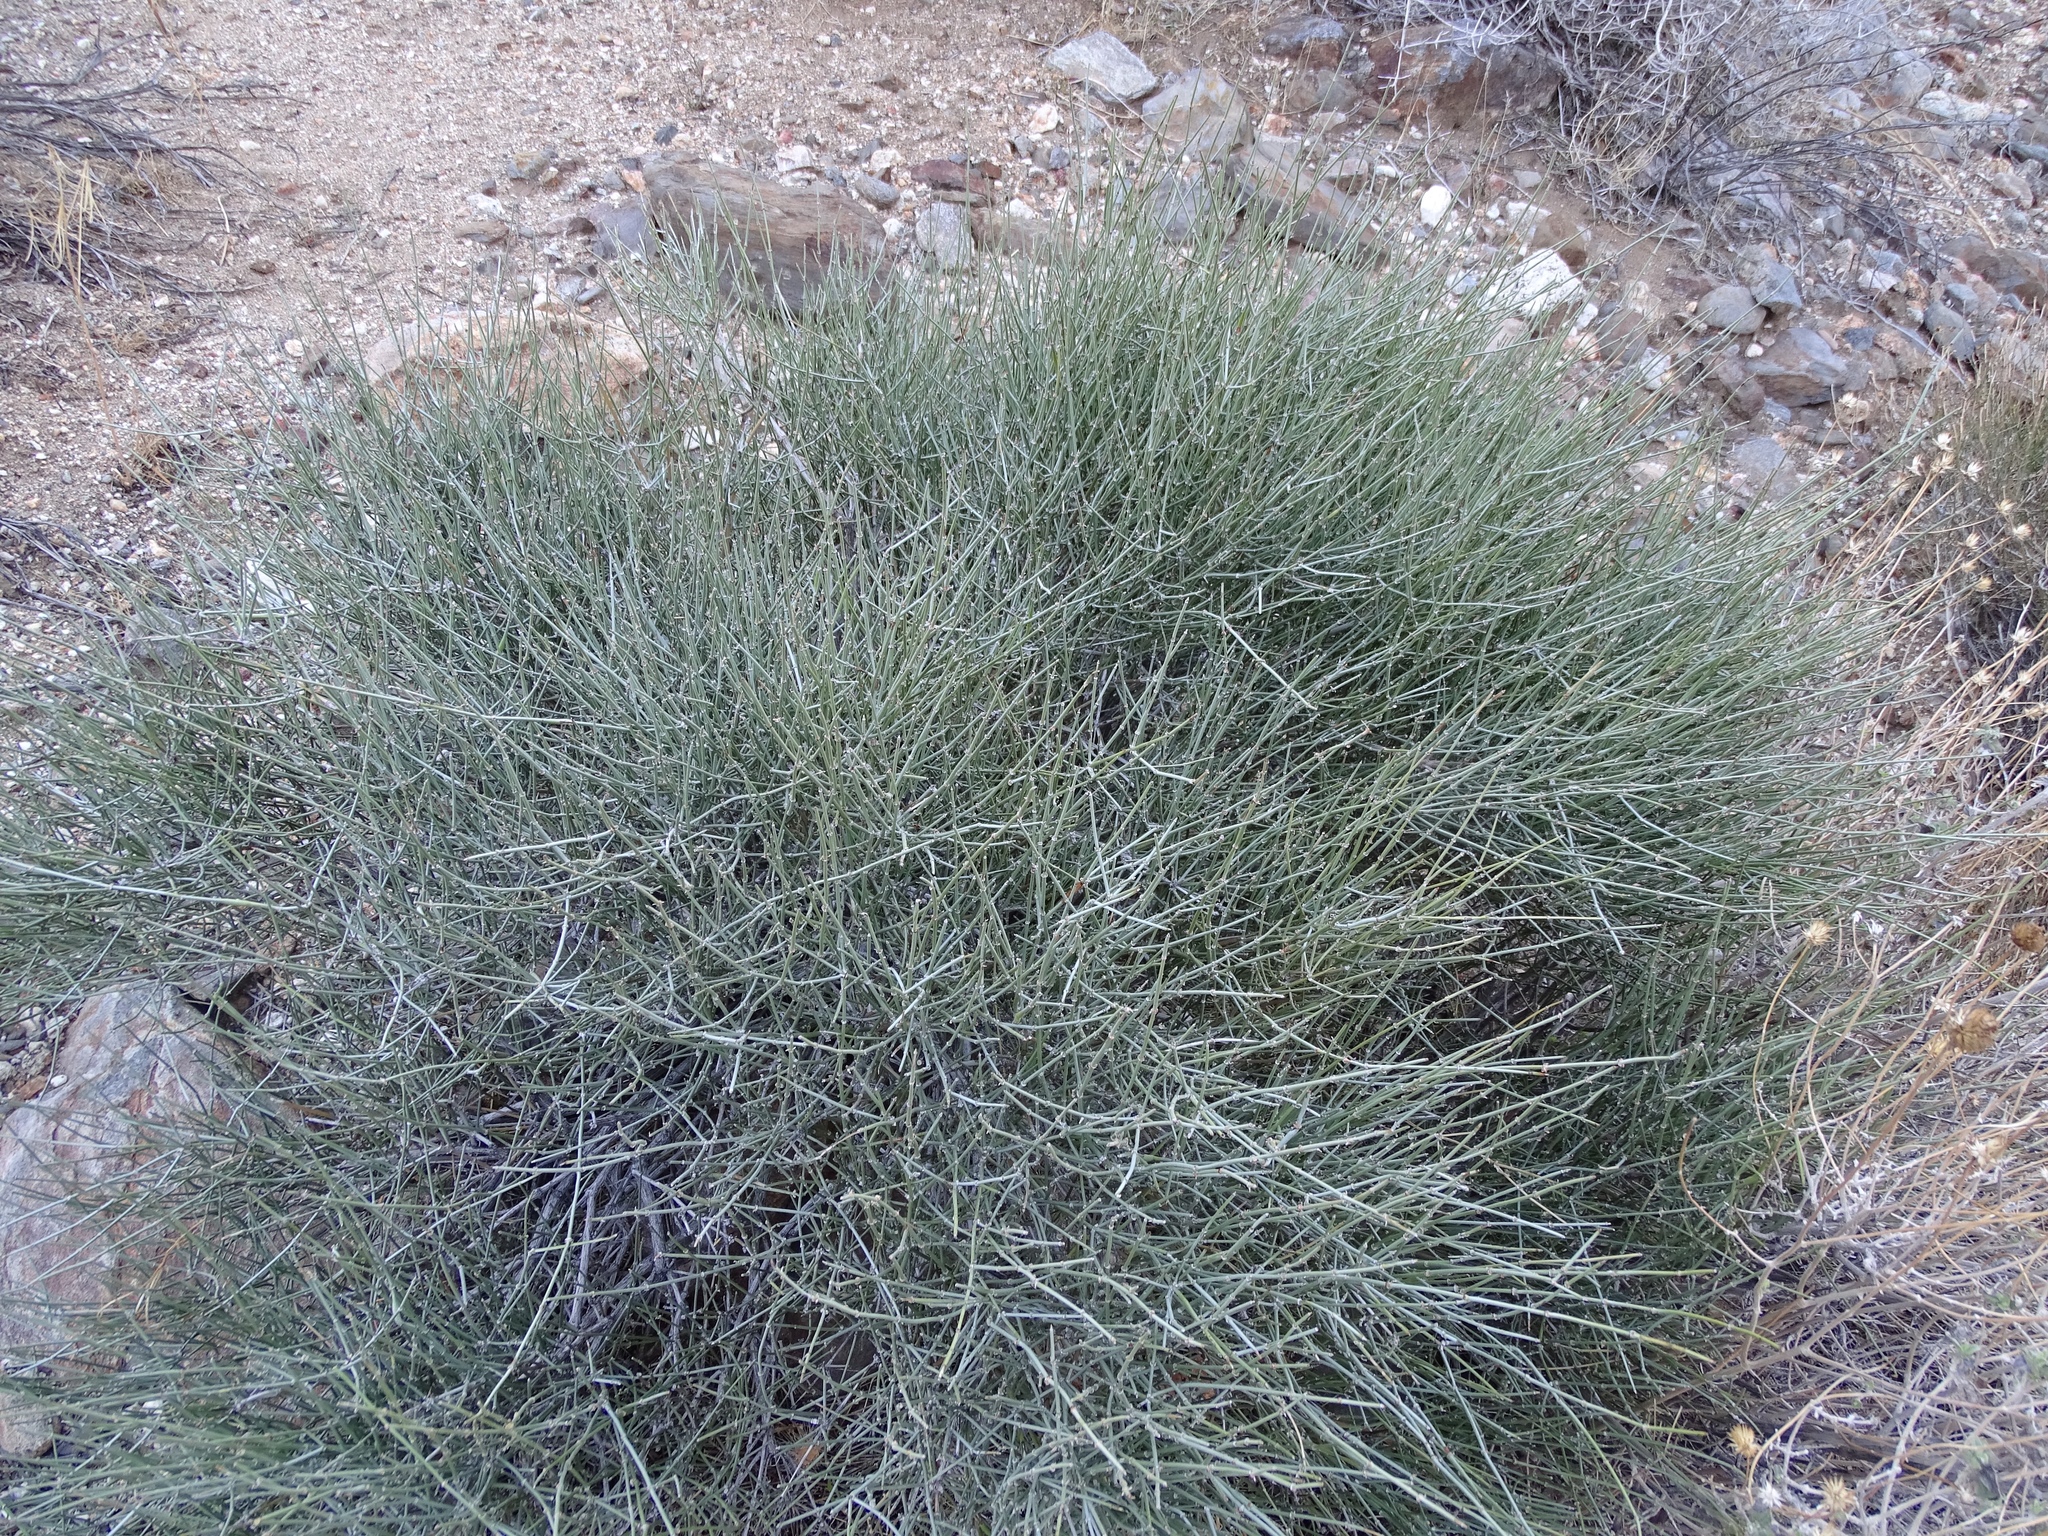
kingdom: Plantae
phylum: Tracheophyta
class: Gnetopsida
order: Ephedrales
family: Ephedraceae
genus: Ephedra
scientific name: Ephedra aspera
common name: Boundary ephedra
